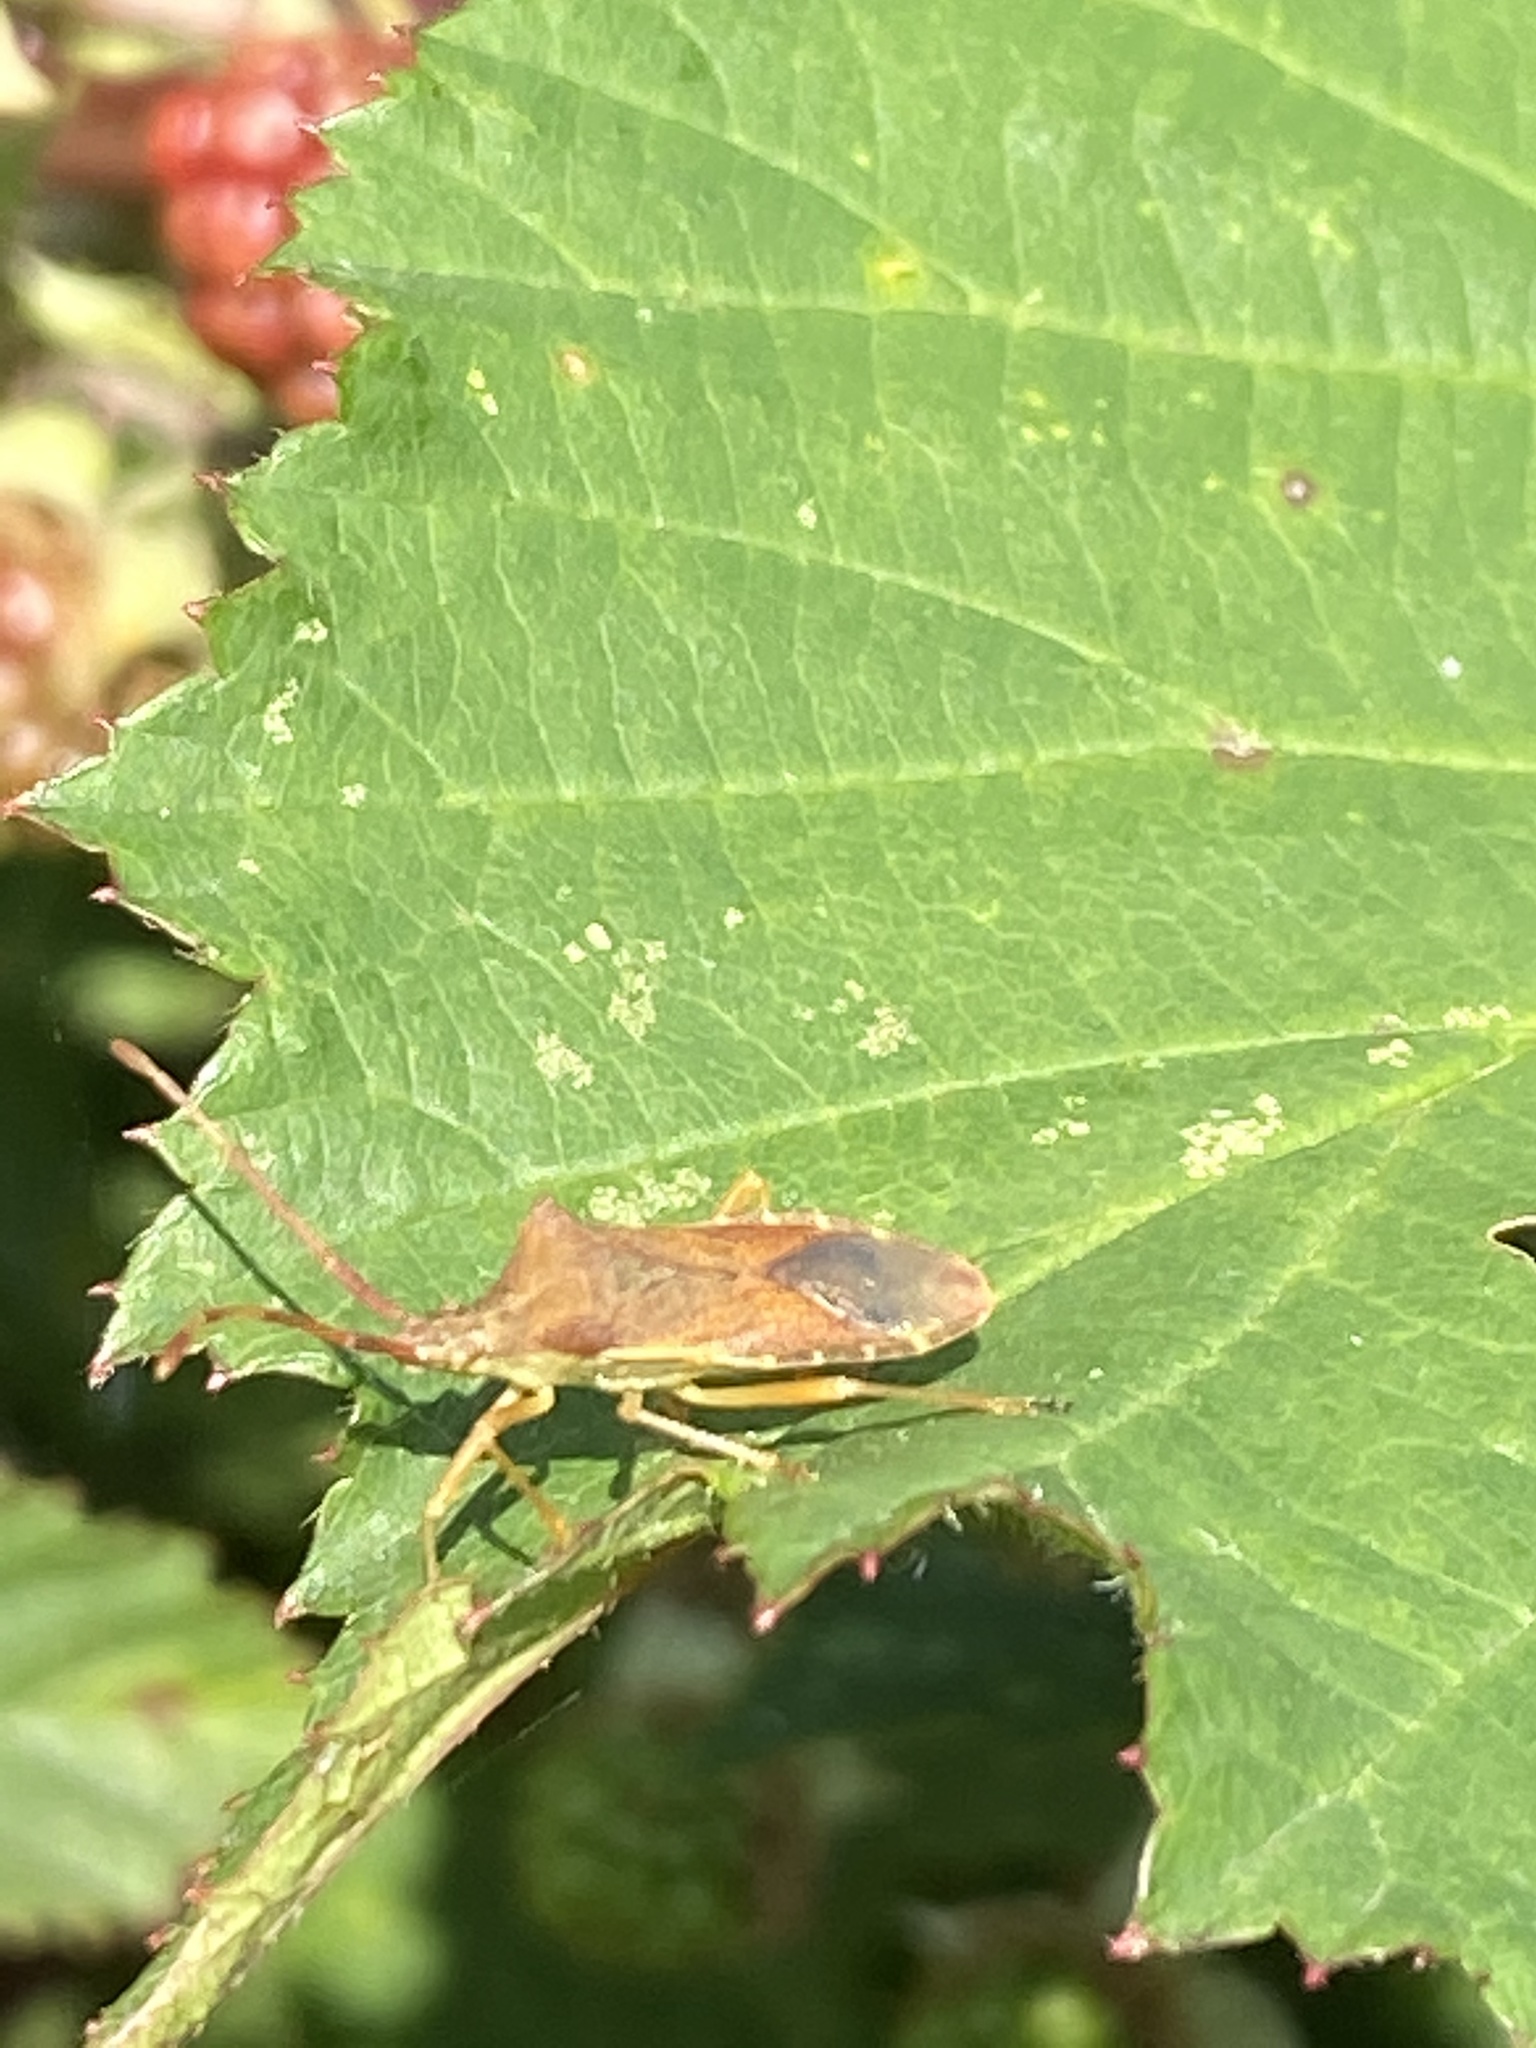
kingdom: Animalia
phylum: Arthropoda
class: Insecta
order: Hemiptera
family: Coreidae
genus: Gonocerus
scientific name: Gonocerus acuteangulatus
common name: Box bug
